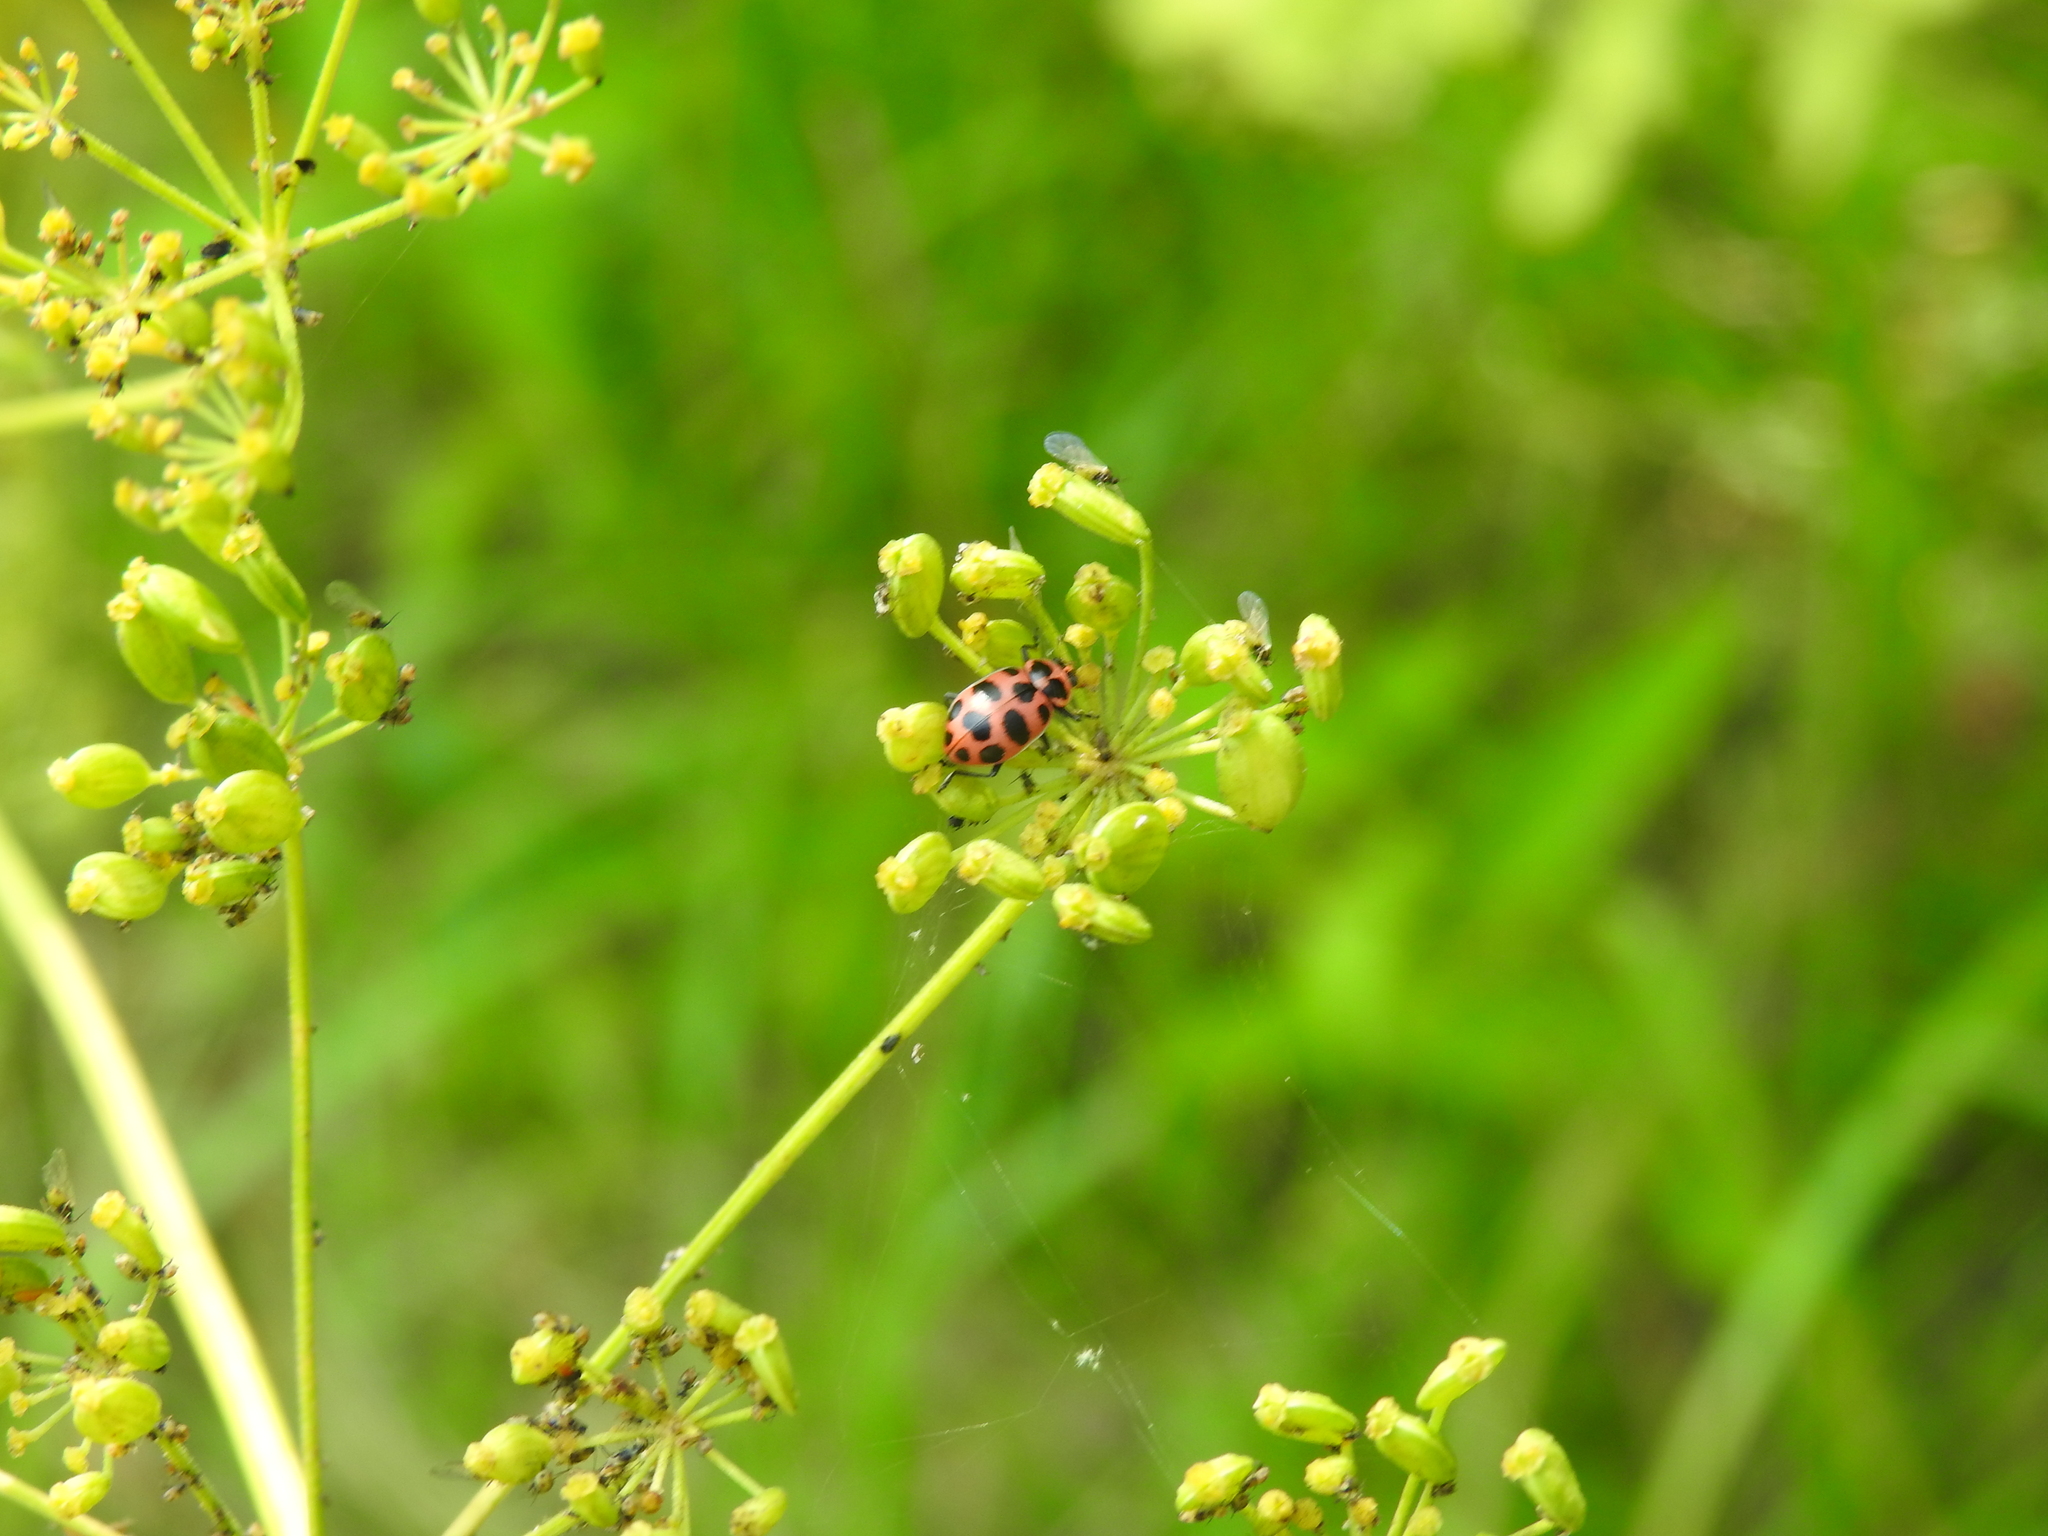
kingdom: Animalia
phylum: Arthropoda
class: Insecta
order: Coleoptera
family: Coccinellidae
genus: Coleomegilla
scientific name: Coleomegilla maculata
